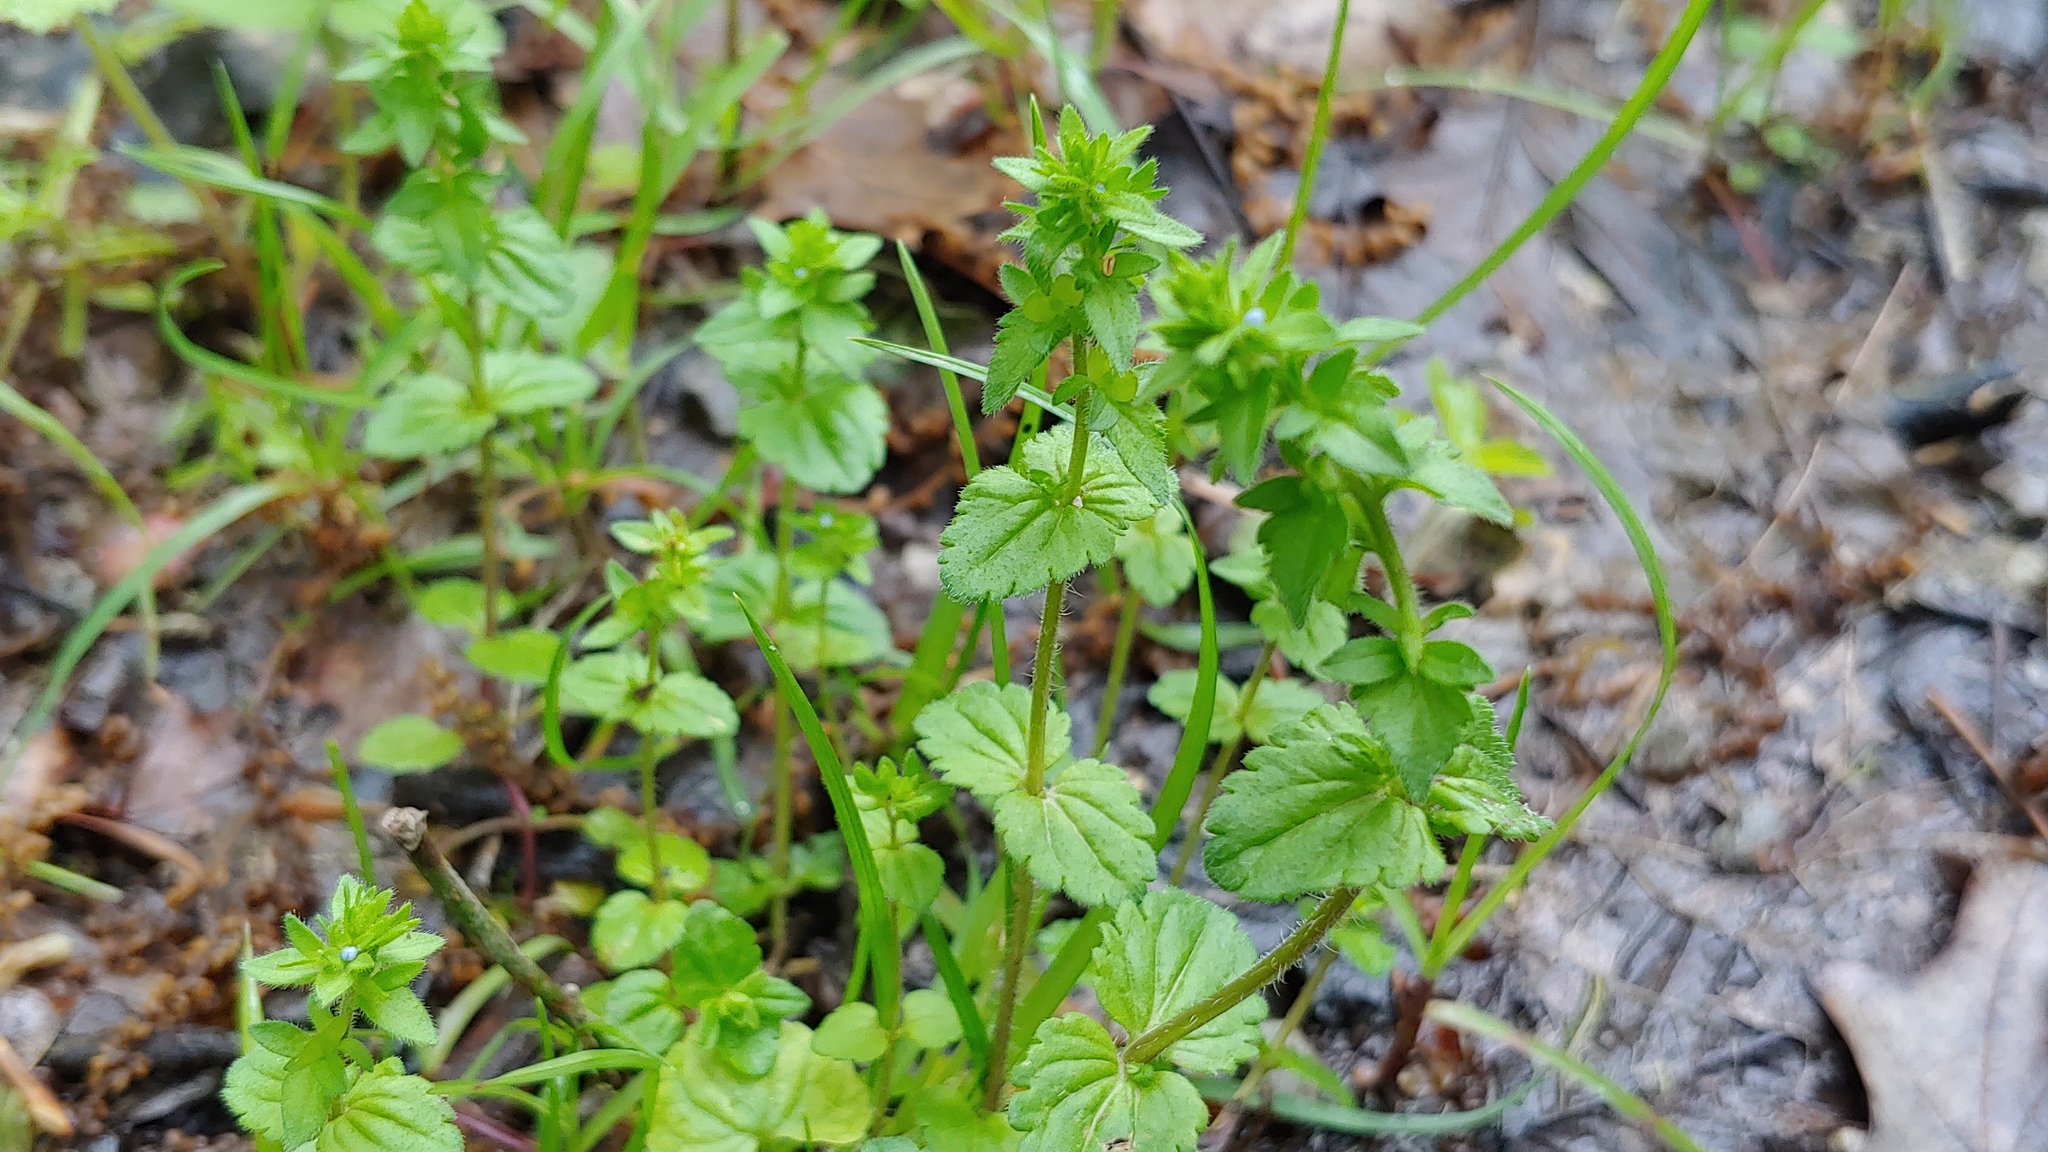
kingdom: Plantae
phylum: Tracheophyta
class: Magnoliopsida
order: Lamiales
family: Plantaginaceae
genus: Veronica
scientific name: Veronica arvensis
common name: Corn speedwell
